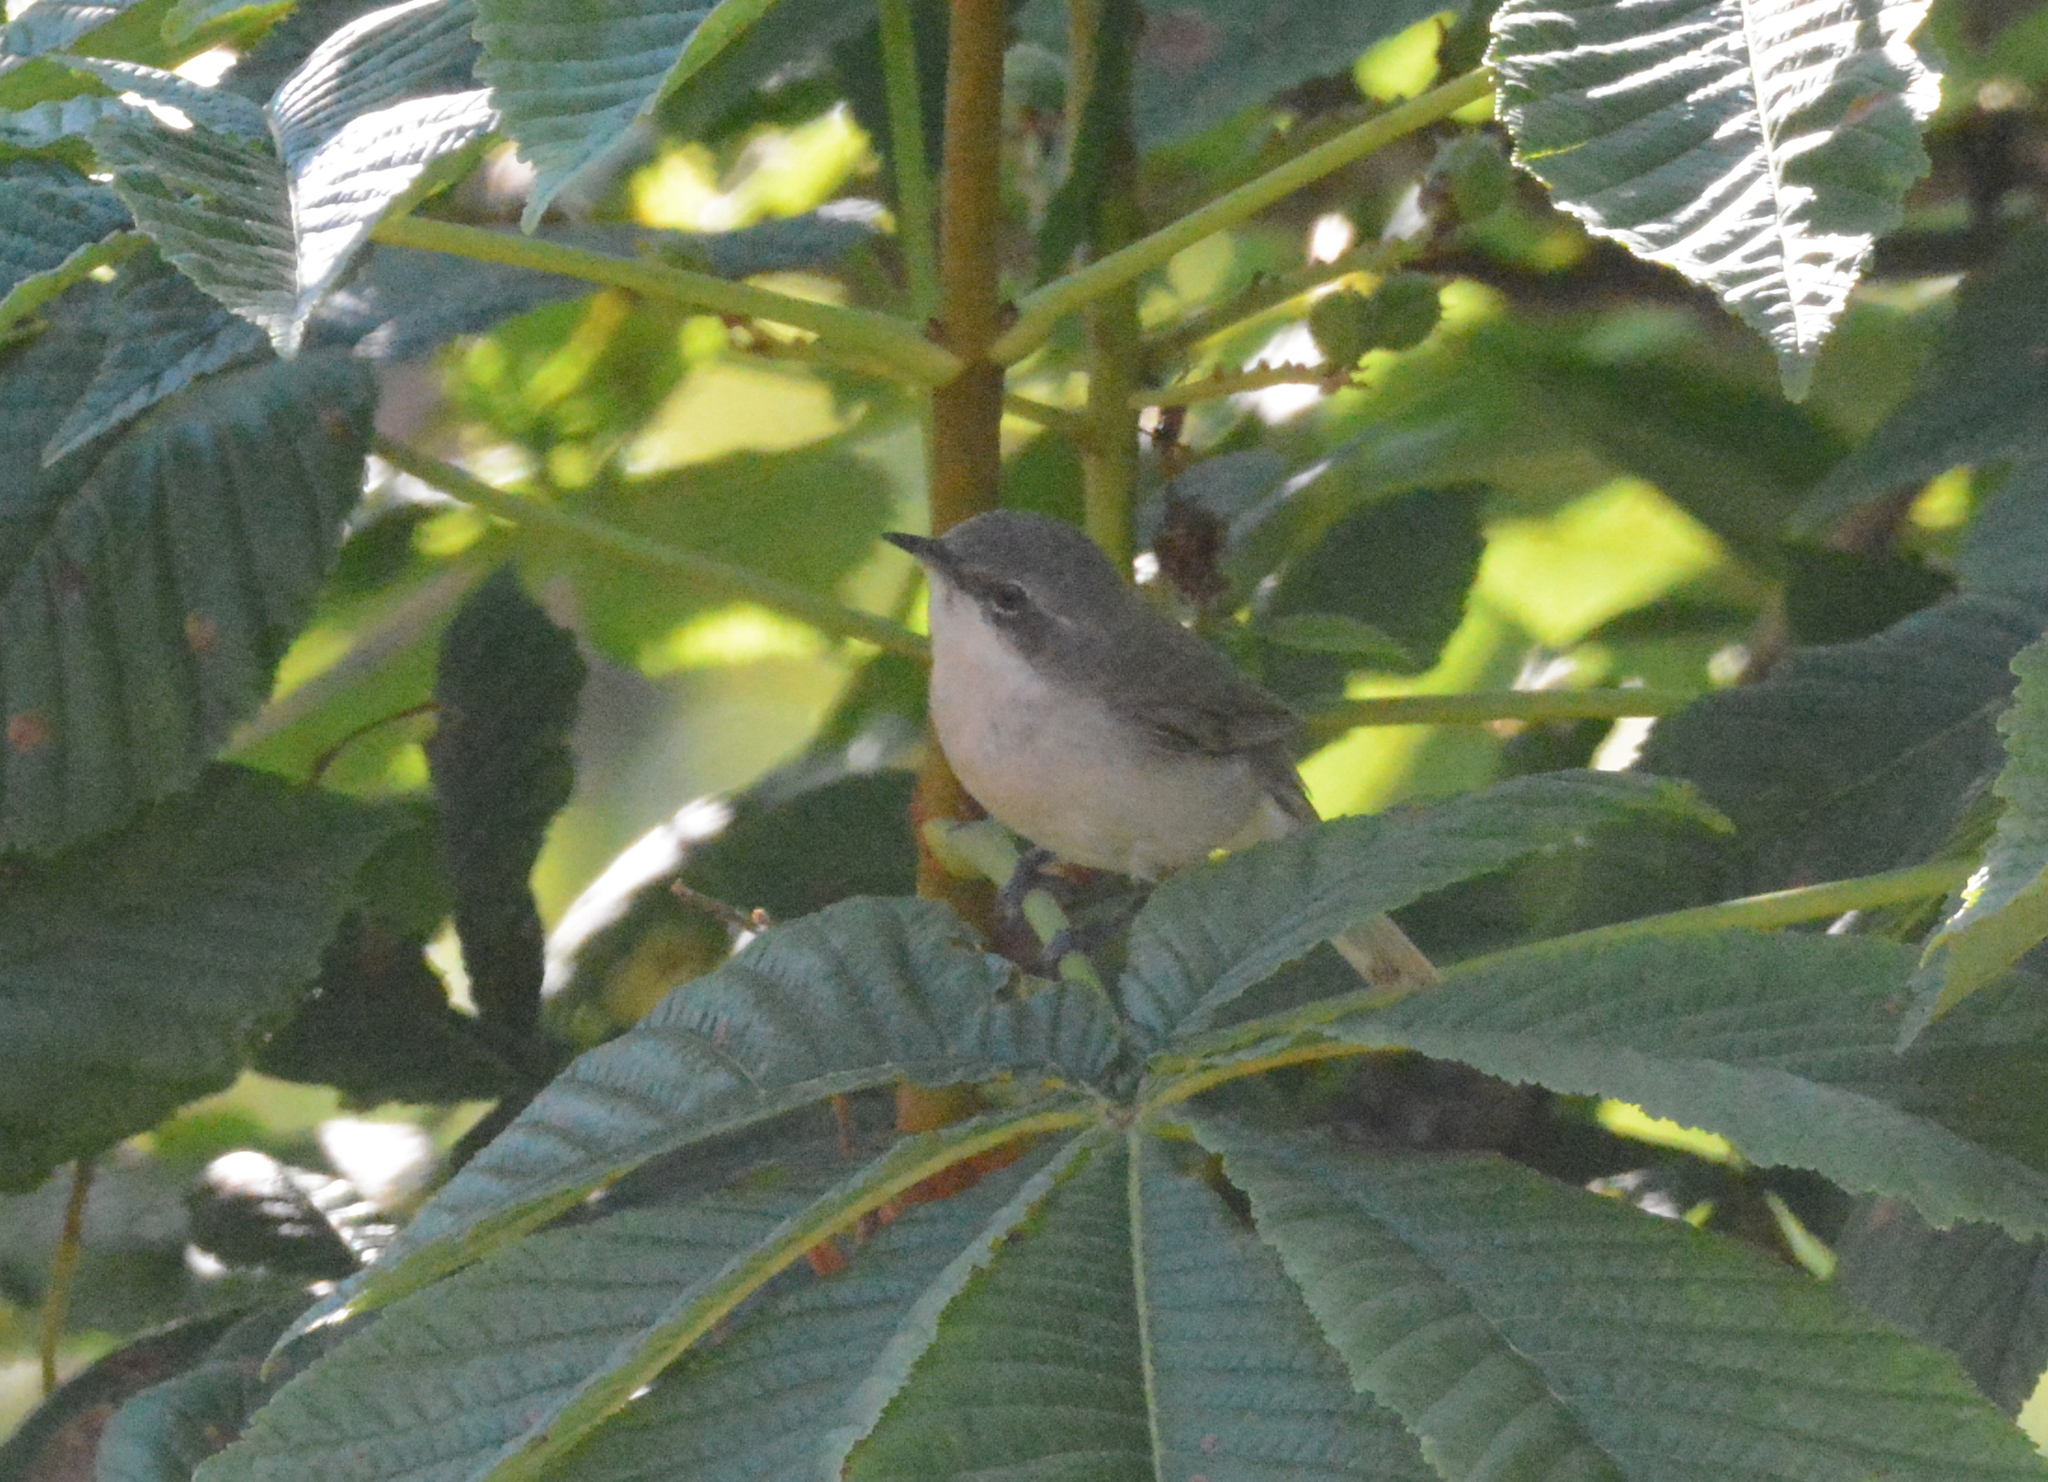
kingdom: Animalia
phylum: Chordata
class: Aves
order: Passeriformes
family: Sylviidae
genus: Sylvia
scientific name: Sylvia curruca
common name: Lesser whitethroat
